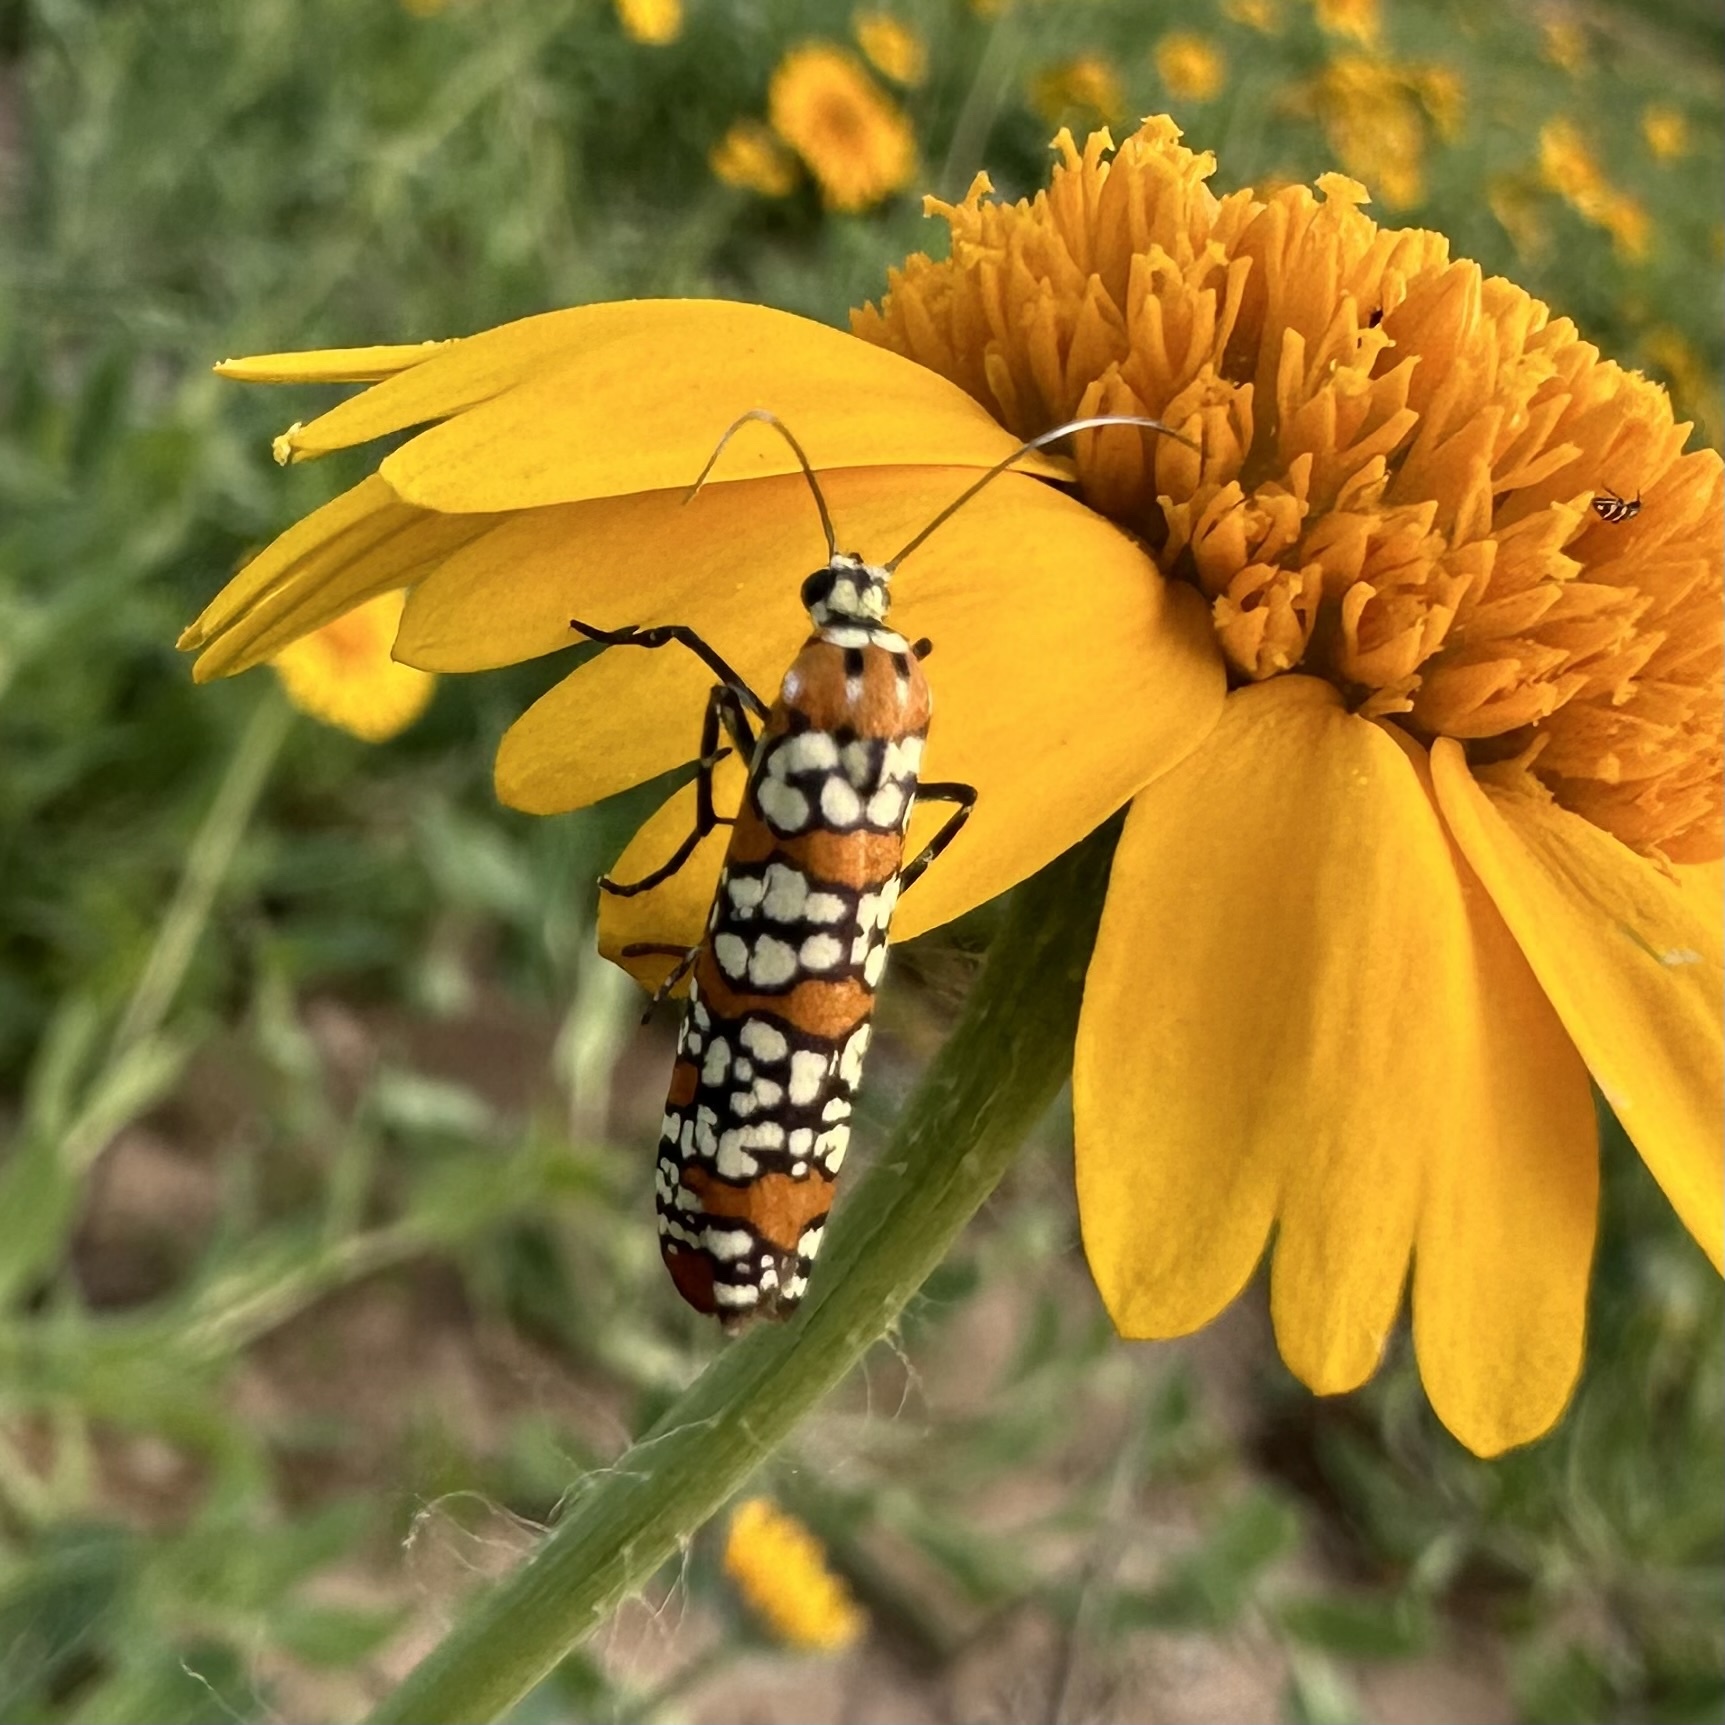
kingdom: Animalia
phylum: Arthropoda
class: Insecta
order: Lepidoptera
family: Attevidae
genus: Atteva
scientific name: Atteva punctella
